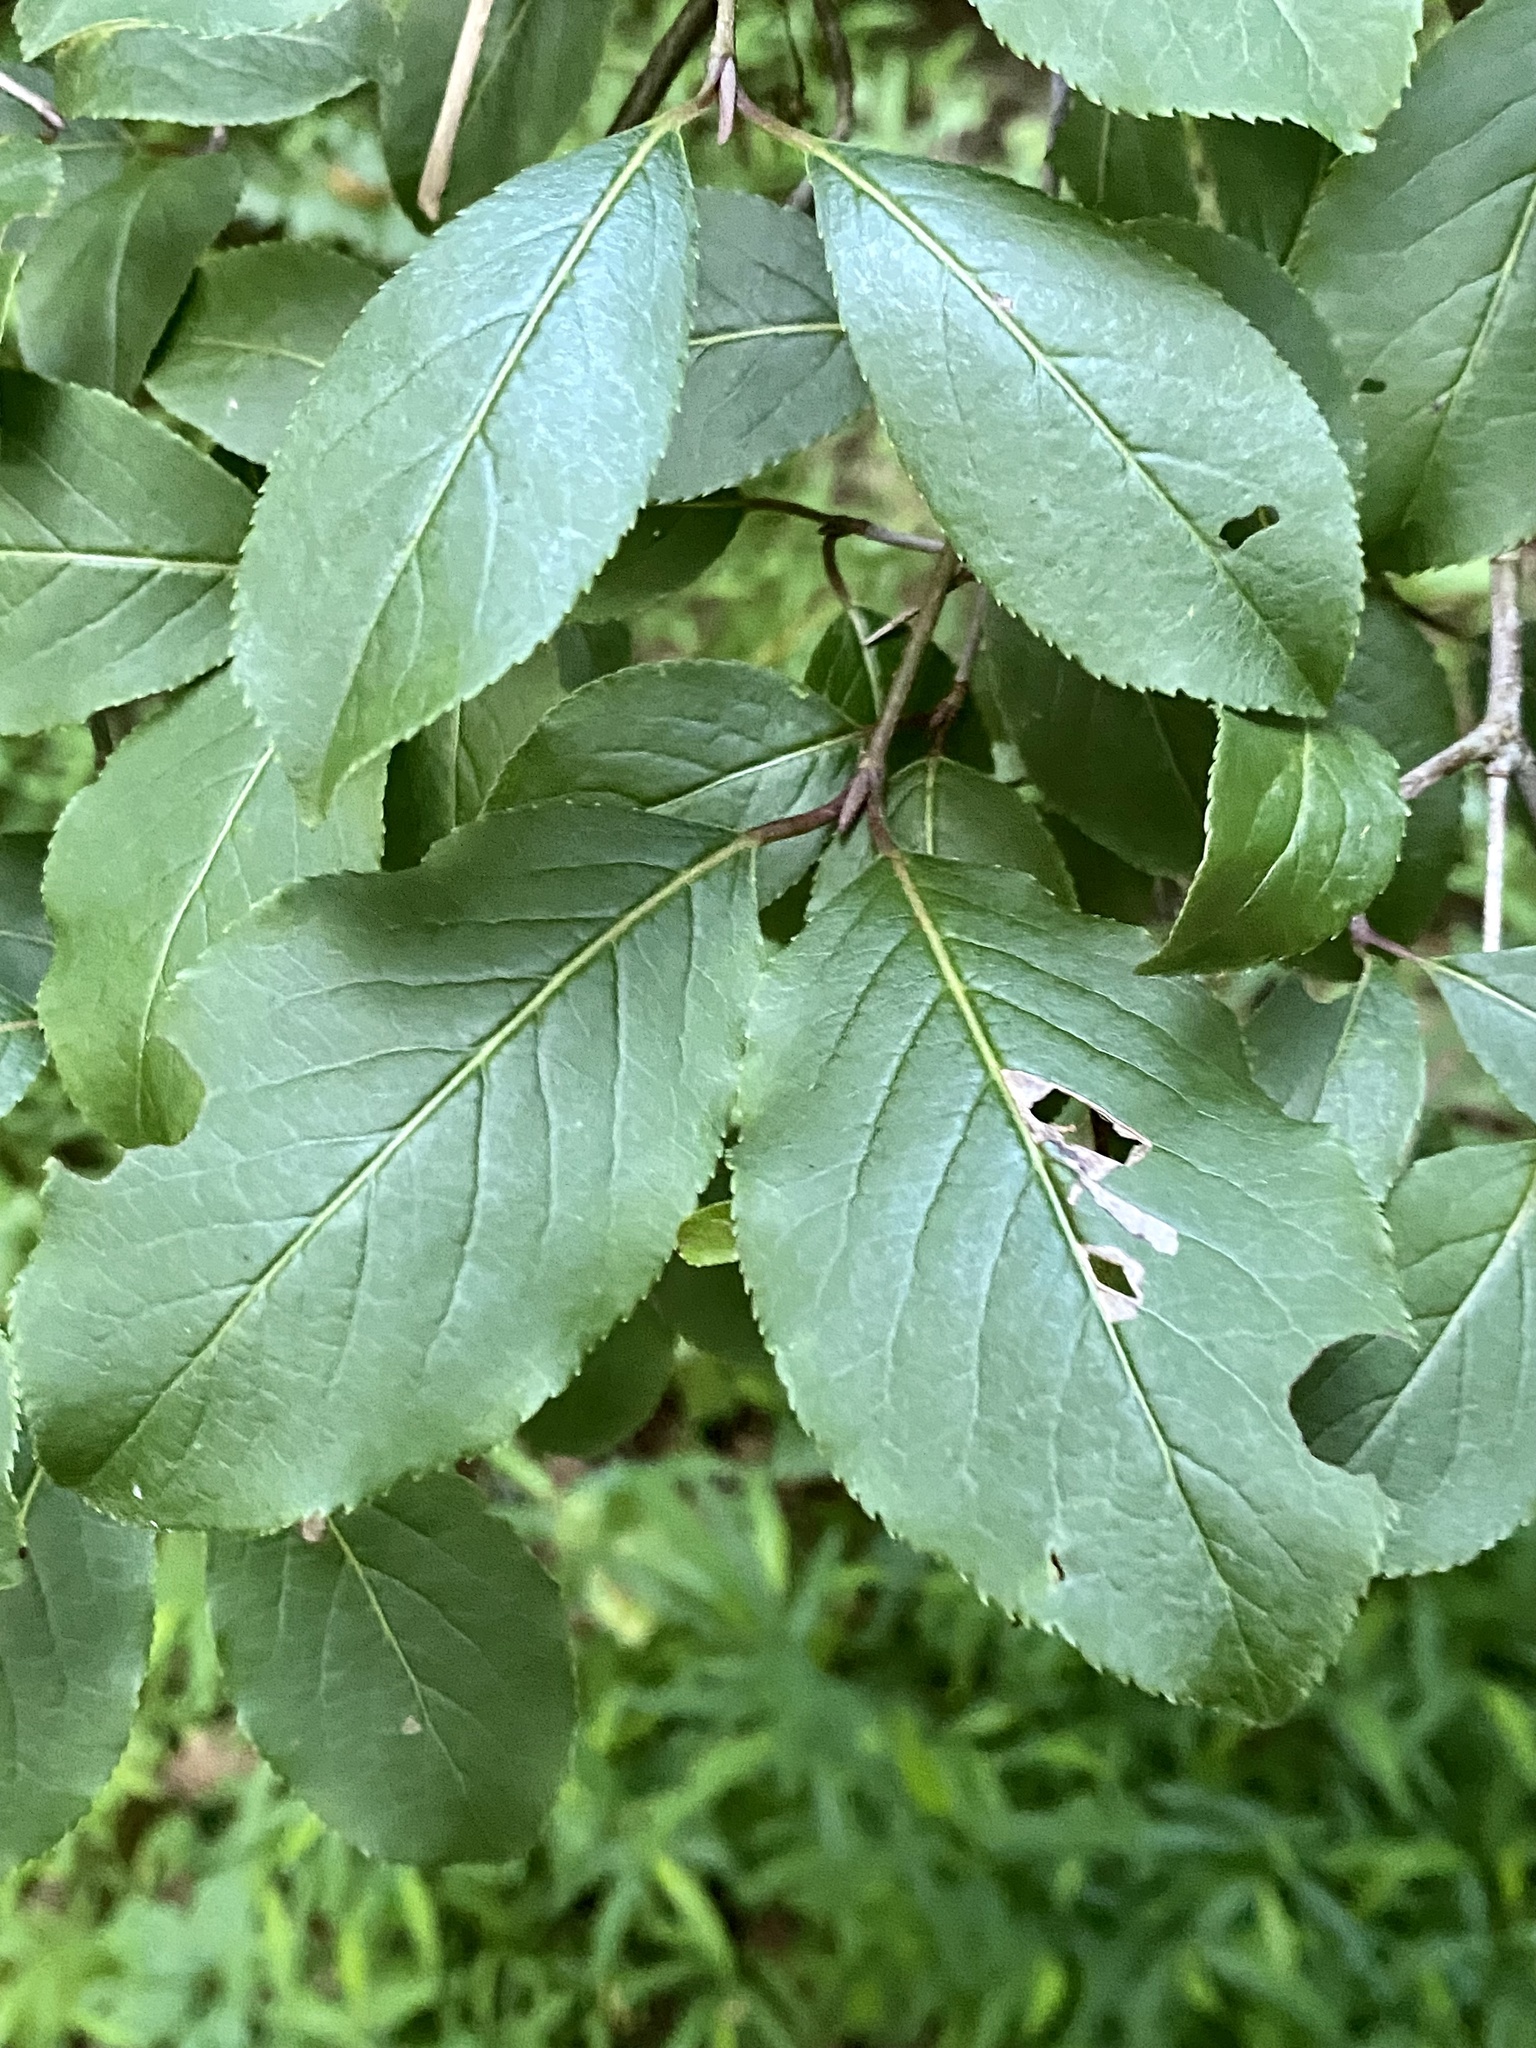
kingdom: Plantae
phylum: Tracheophyta
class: Magnoliopsida
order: Dipsacales
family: Viburnaceae
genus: Viburnum
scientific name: Viburnum prunifolium
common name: Black haw
